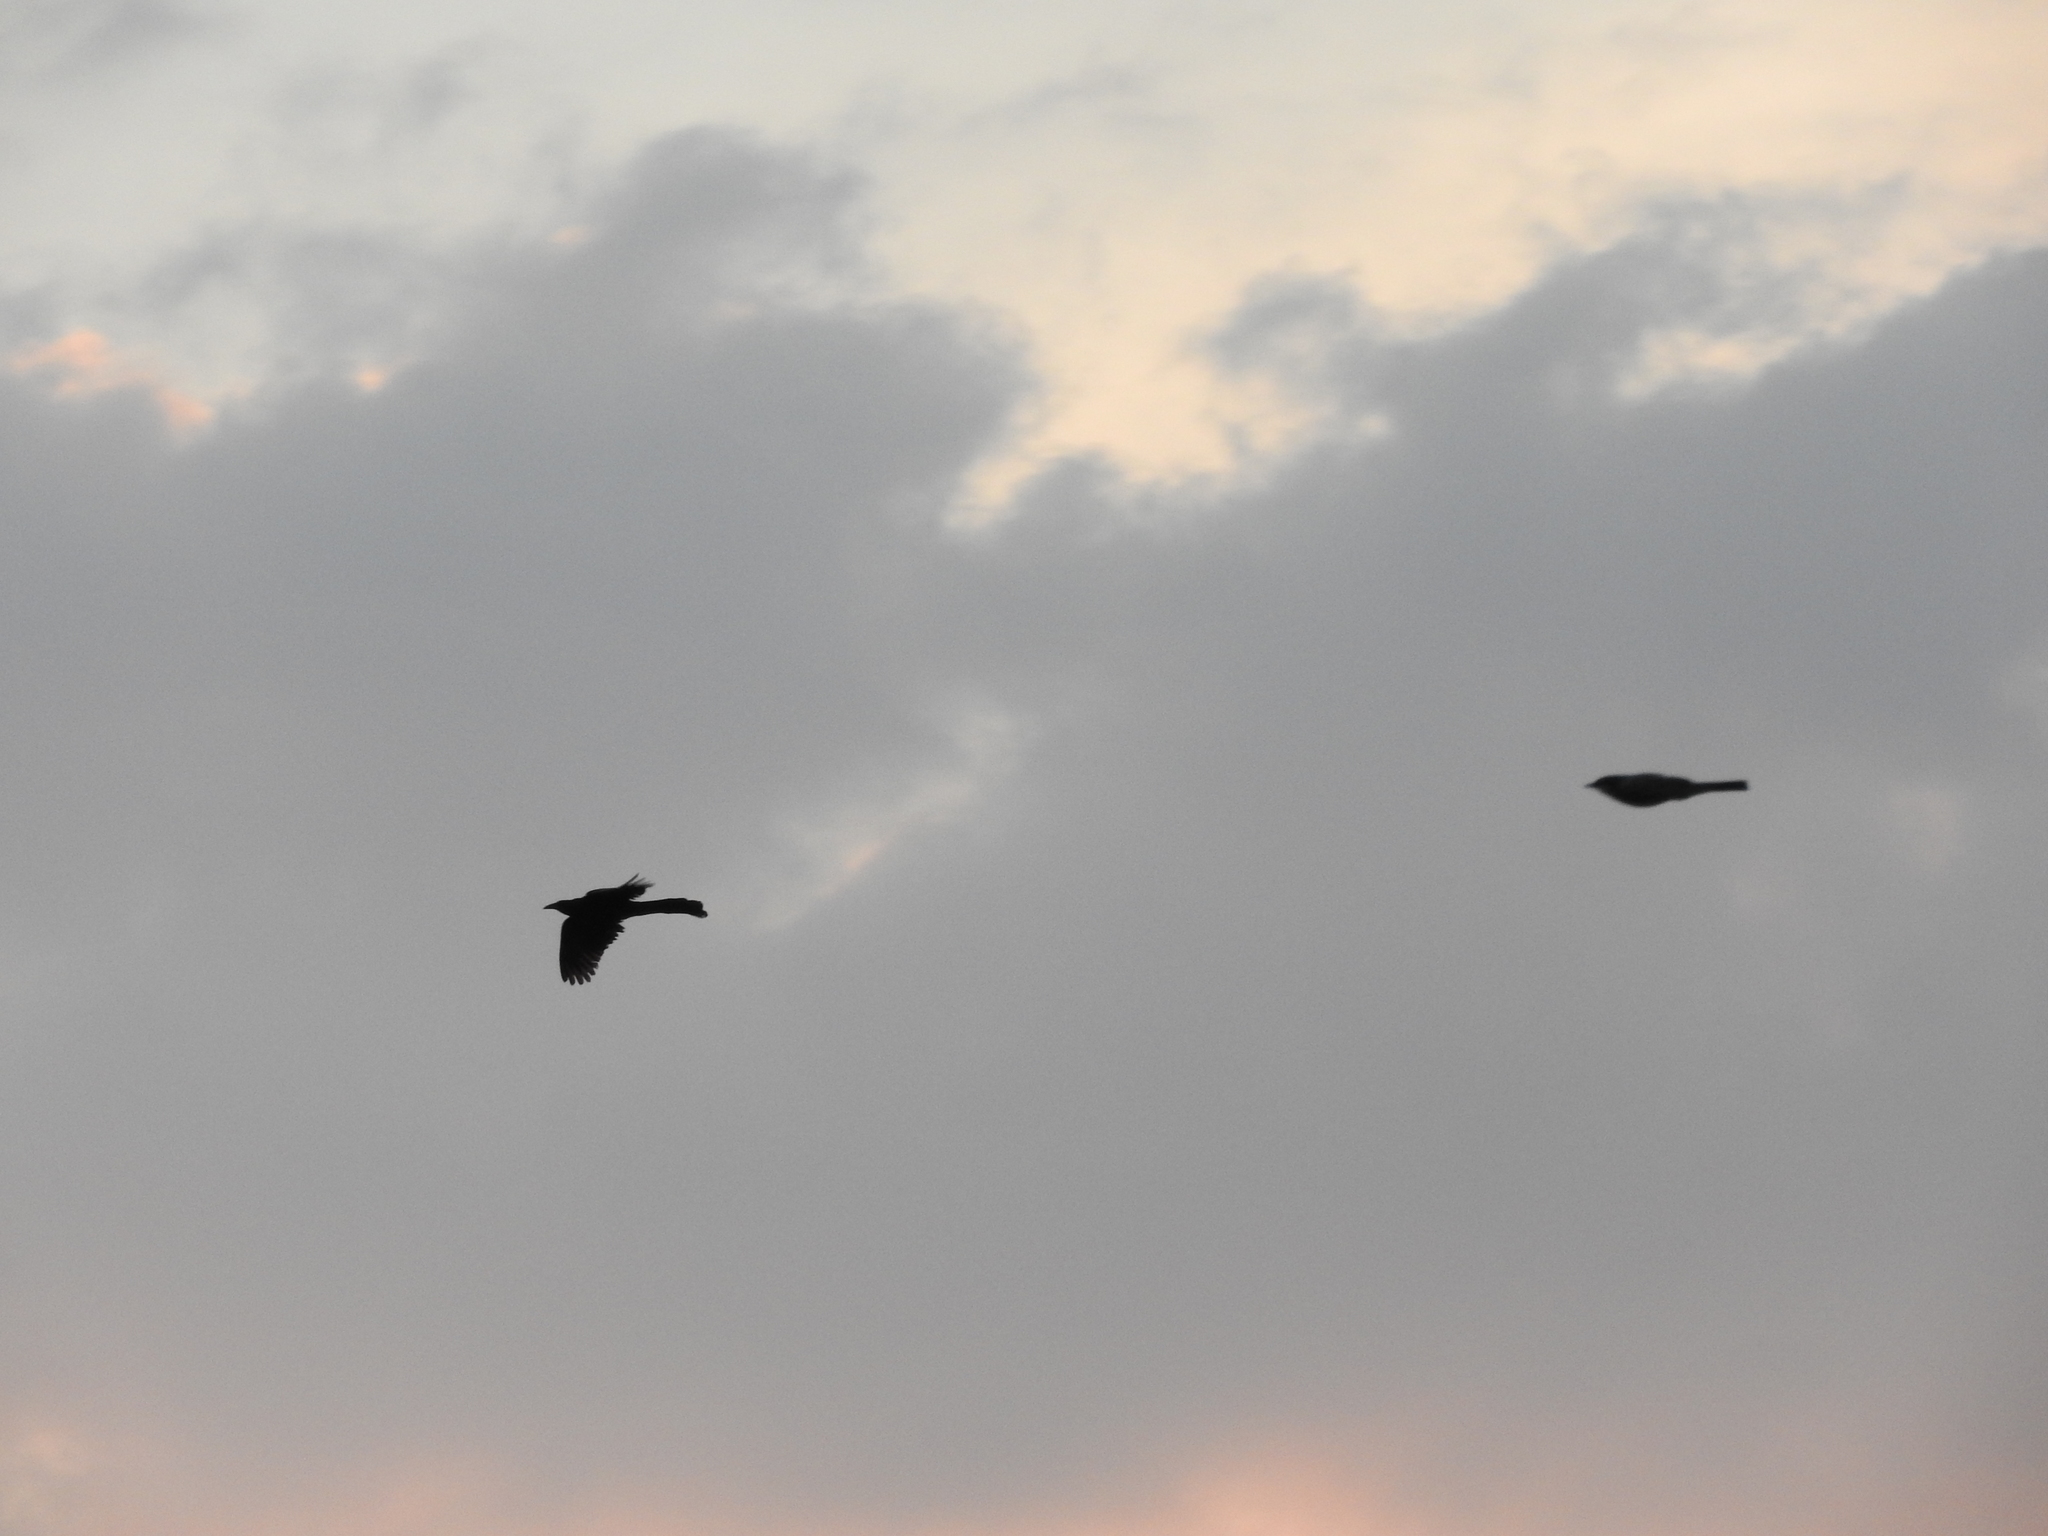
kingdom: Animalia
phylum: Chordata
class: Aves
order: Passeriformes
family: Icteridae
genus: Quiscalus
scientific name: Quiscalus mexicanus
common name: Great-tailed grackle
